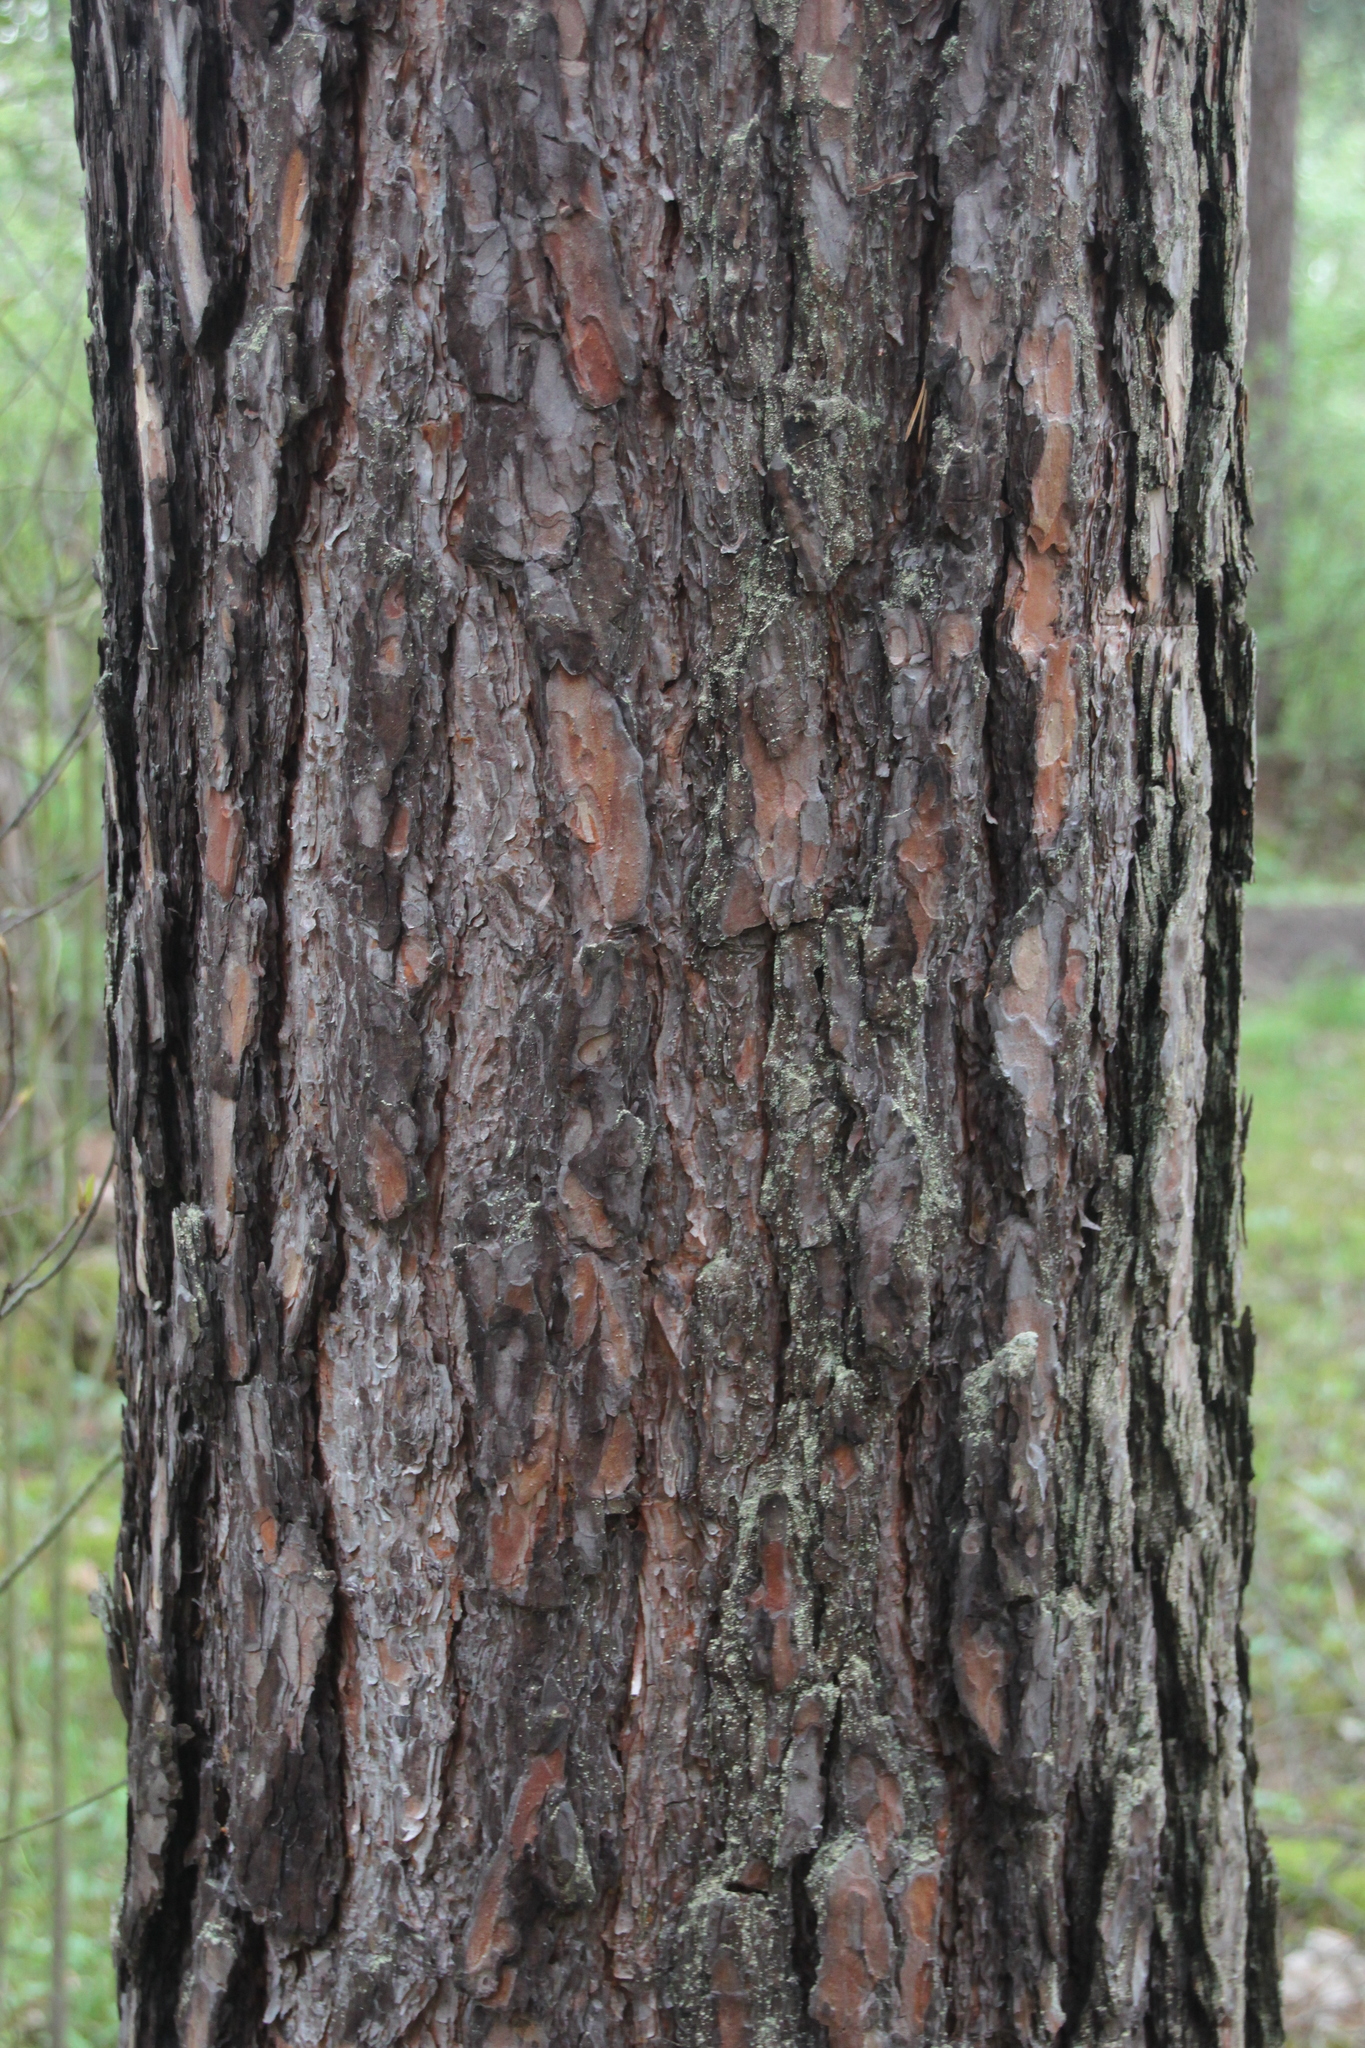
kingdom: Plantae
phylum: Tracheophyta
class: Pinopsida
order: Pinales
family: Pinaceae
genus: Pinus
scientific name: Pinus sylvestris
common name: Scots pine
